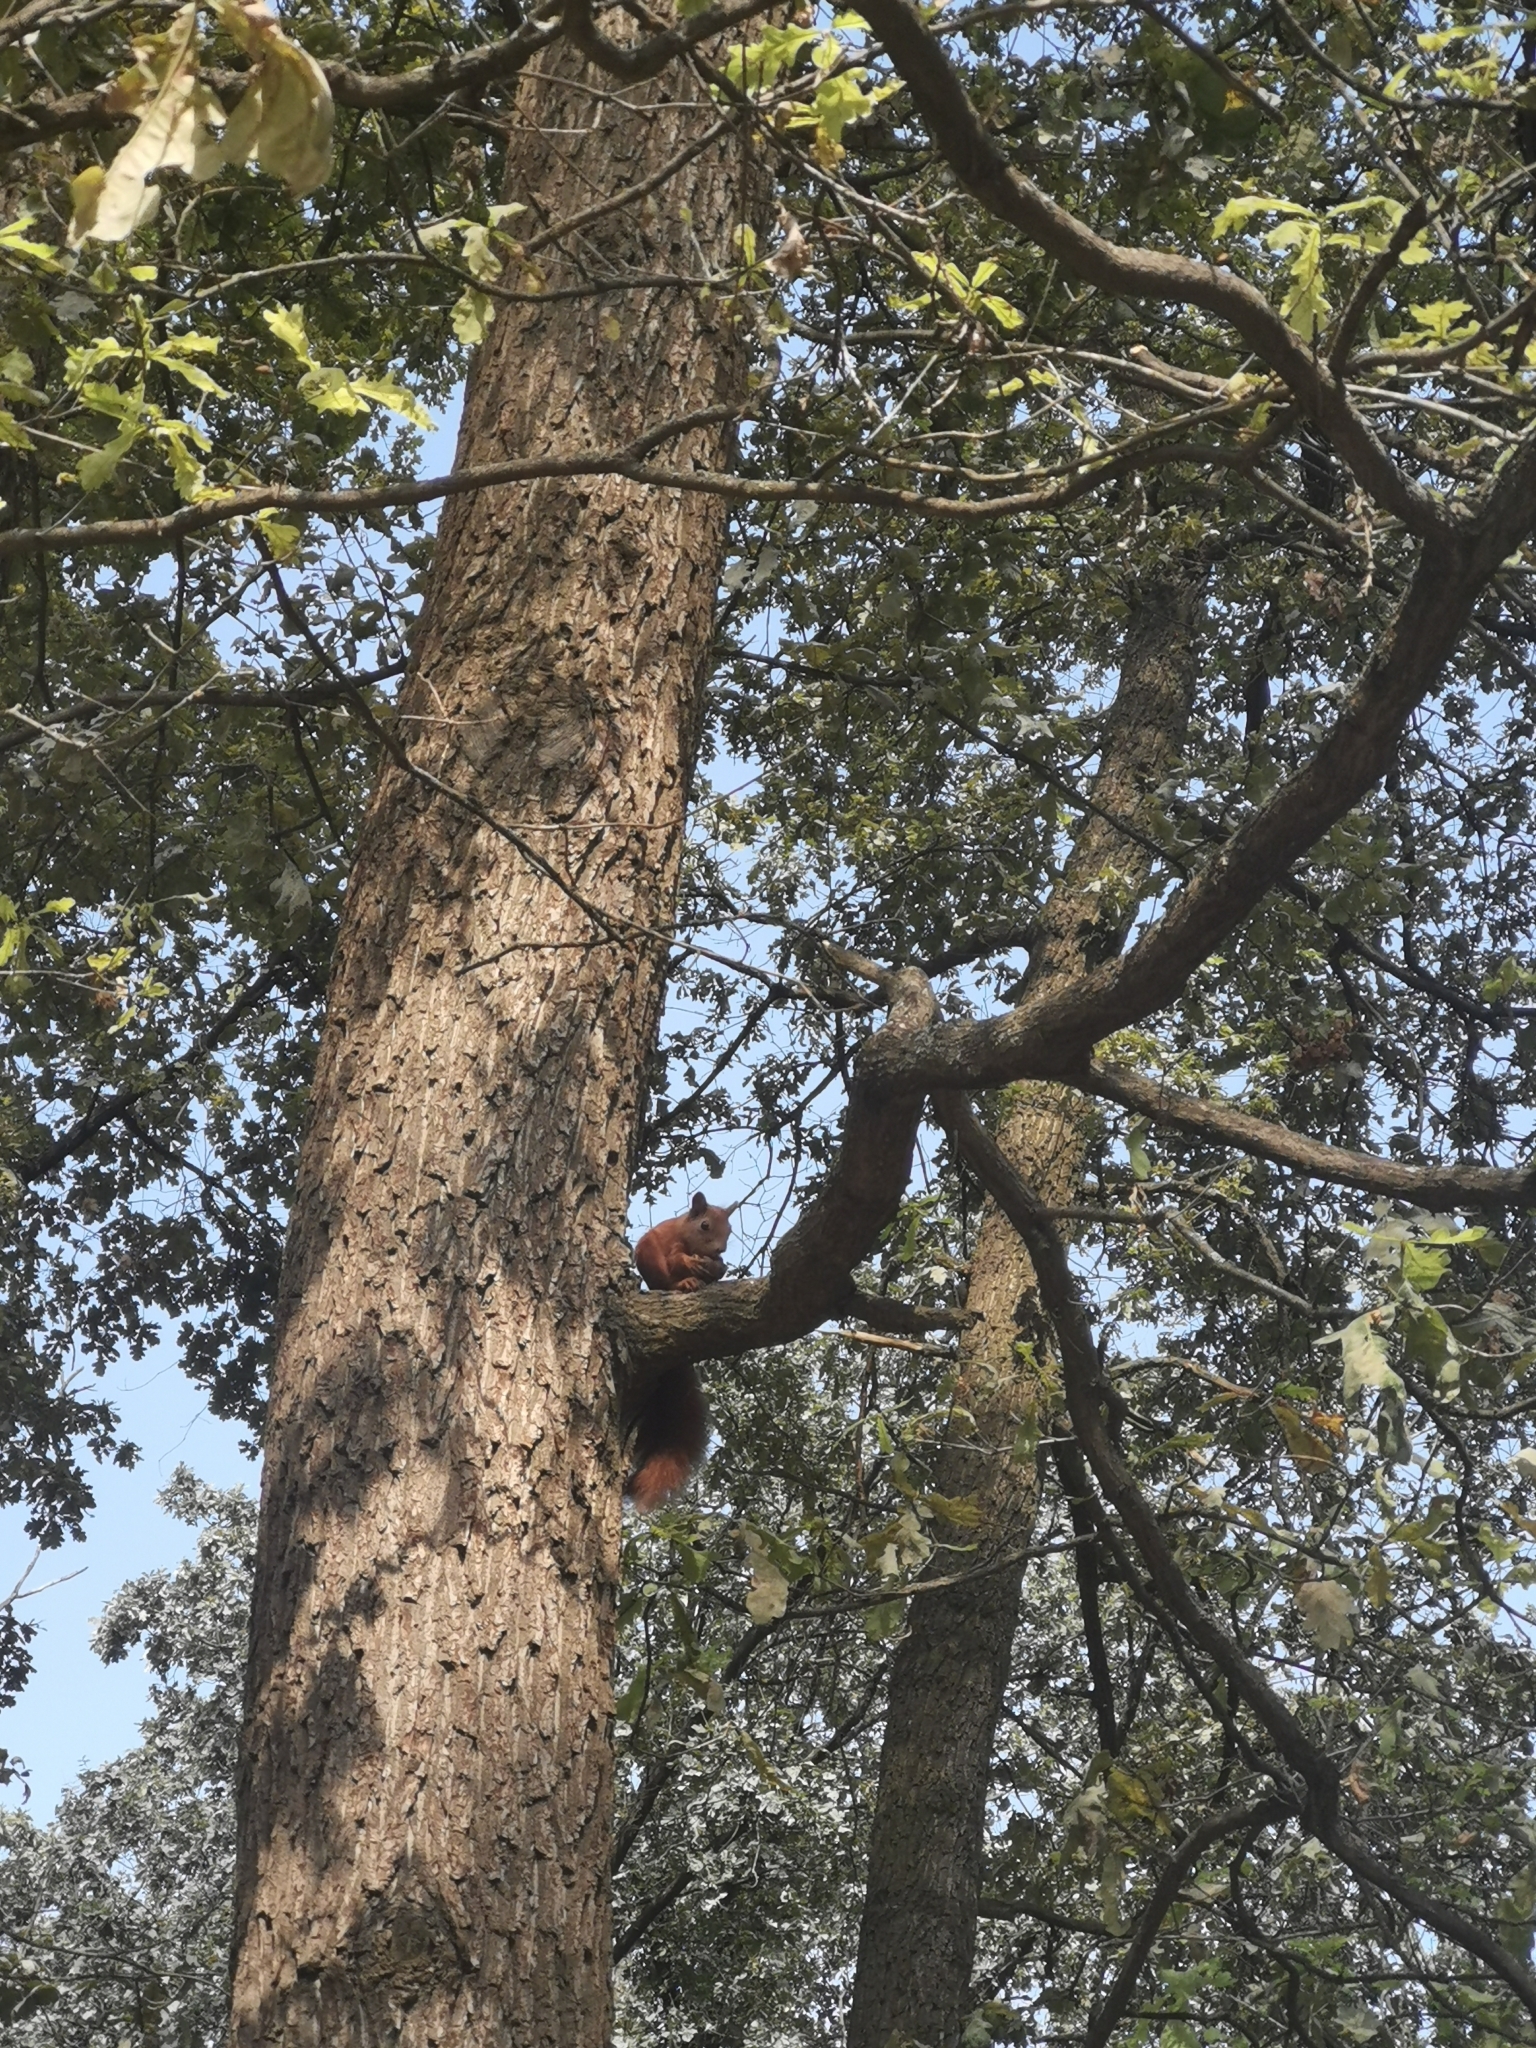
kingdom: Animalia
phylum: Chordata
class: Mammalia
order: Rodentia
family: Sciuridae
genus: Sciurus
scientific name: Sciurus vulgaris
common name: Eurasian red squirrel
